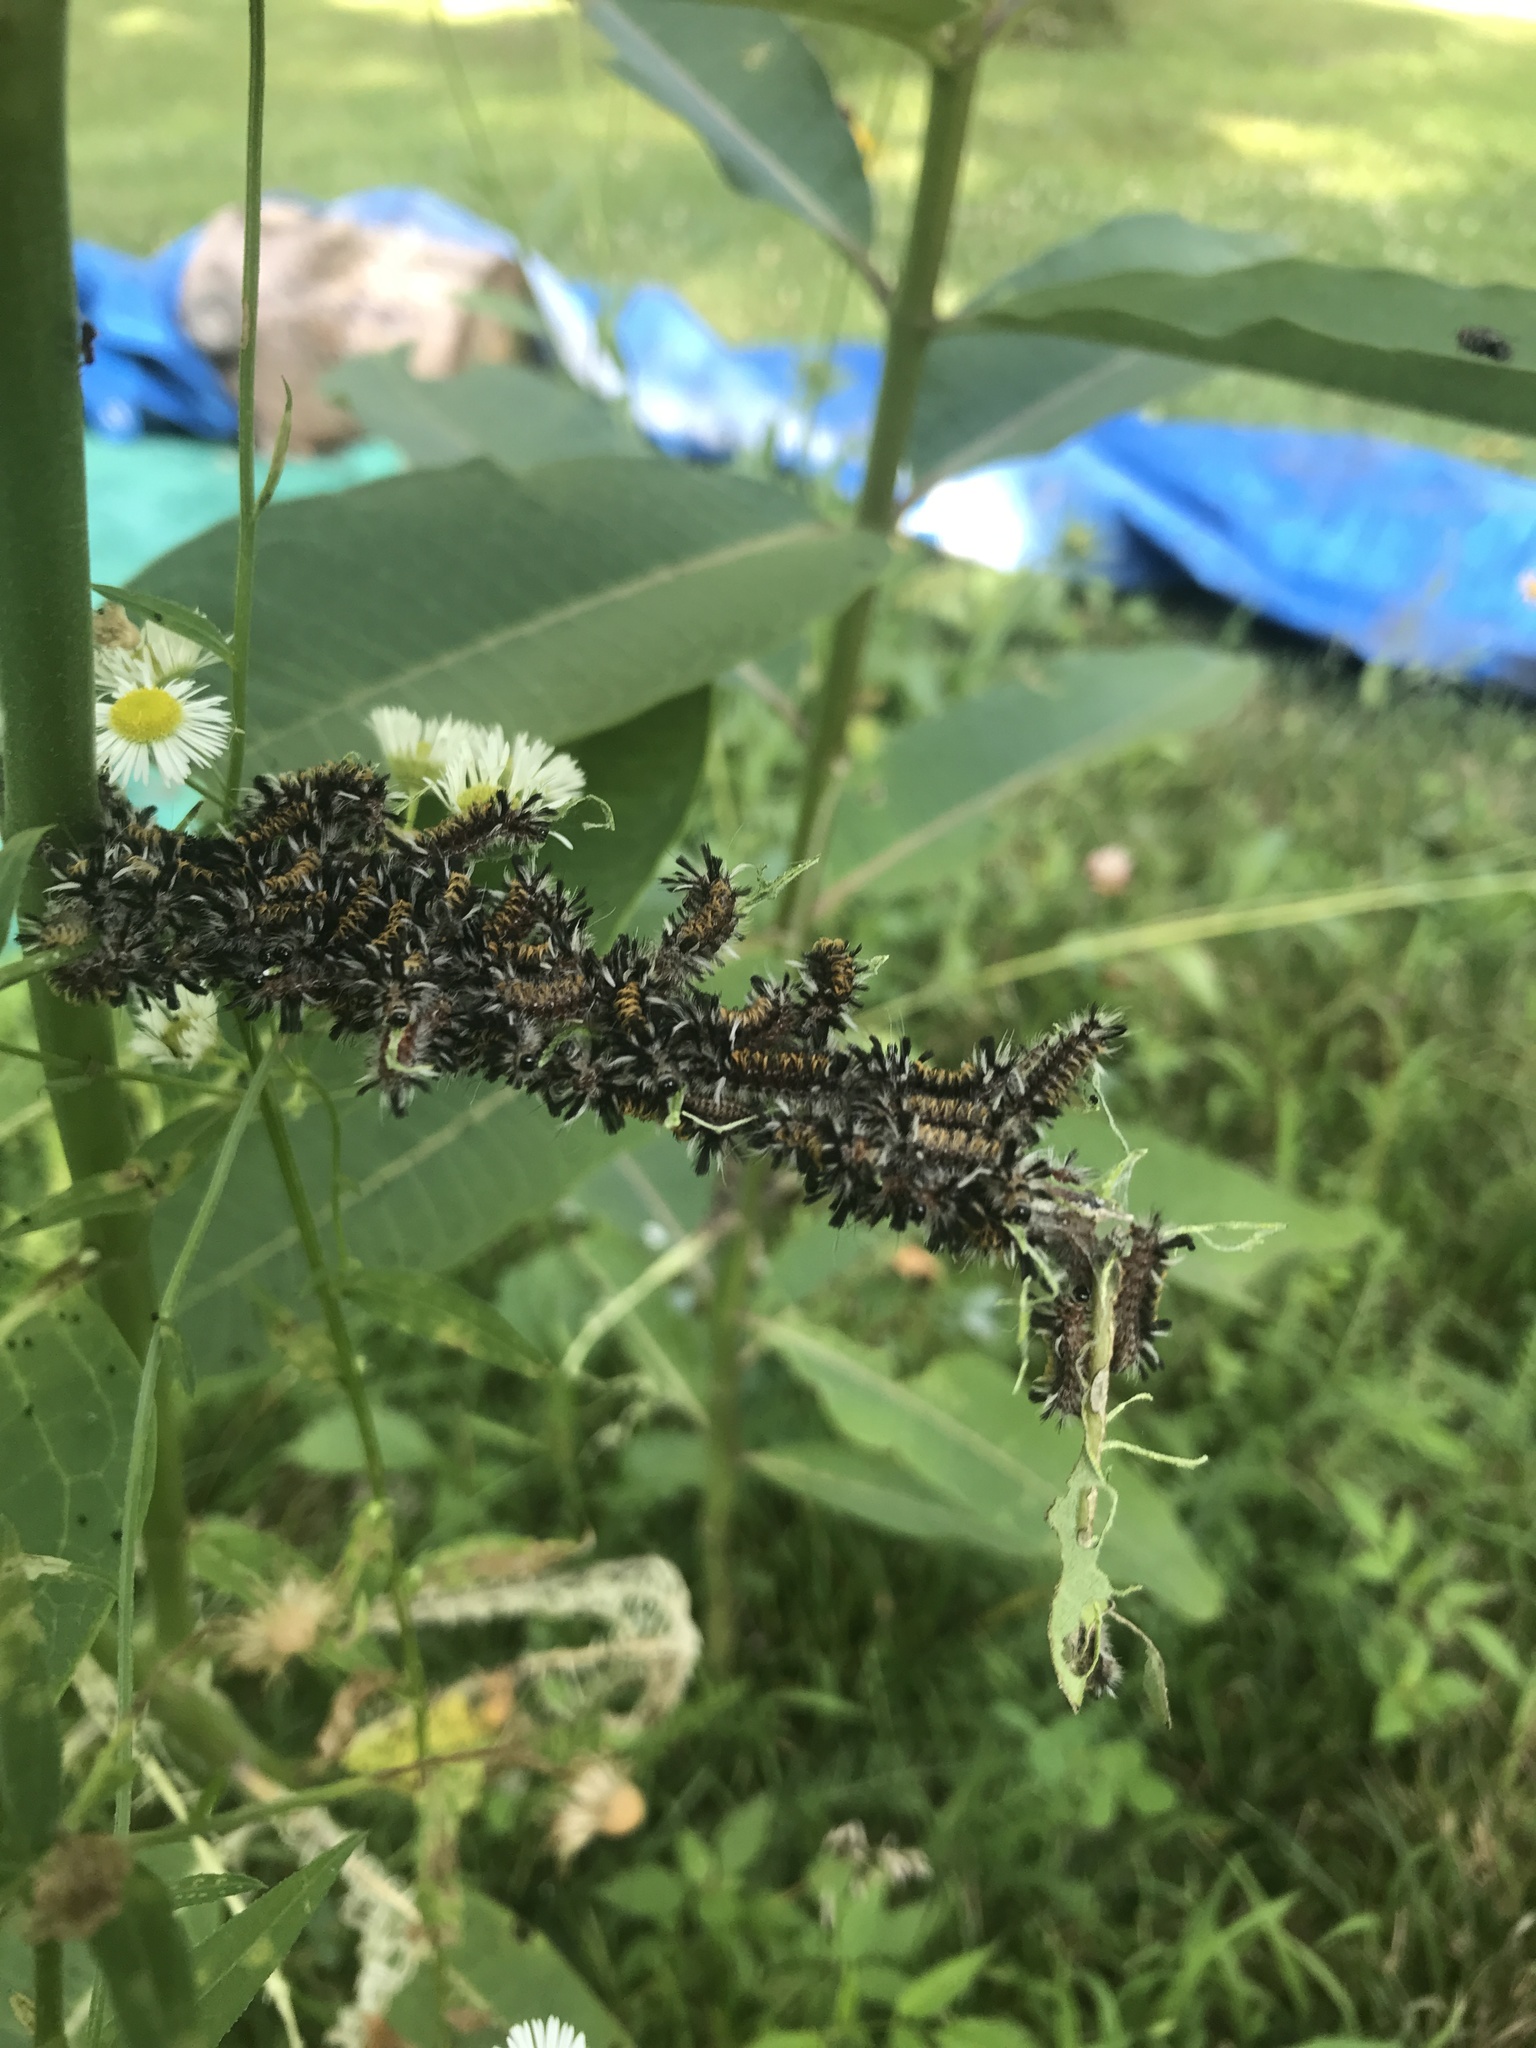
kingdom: Animalia
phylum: Arthropoda
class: Insecta
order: Lepidoptera
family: Erebidae
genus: Euchaetes
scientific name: Euchaetes egle
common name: Milkweed tussock moth
